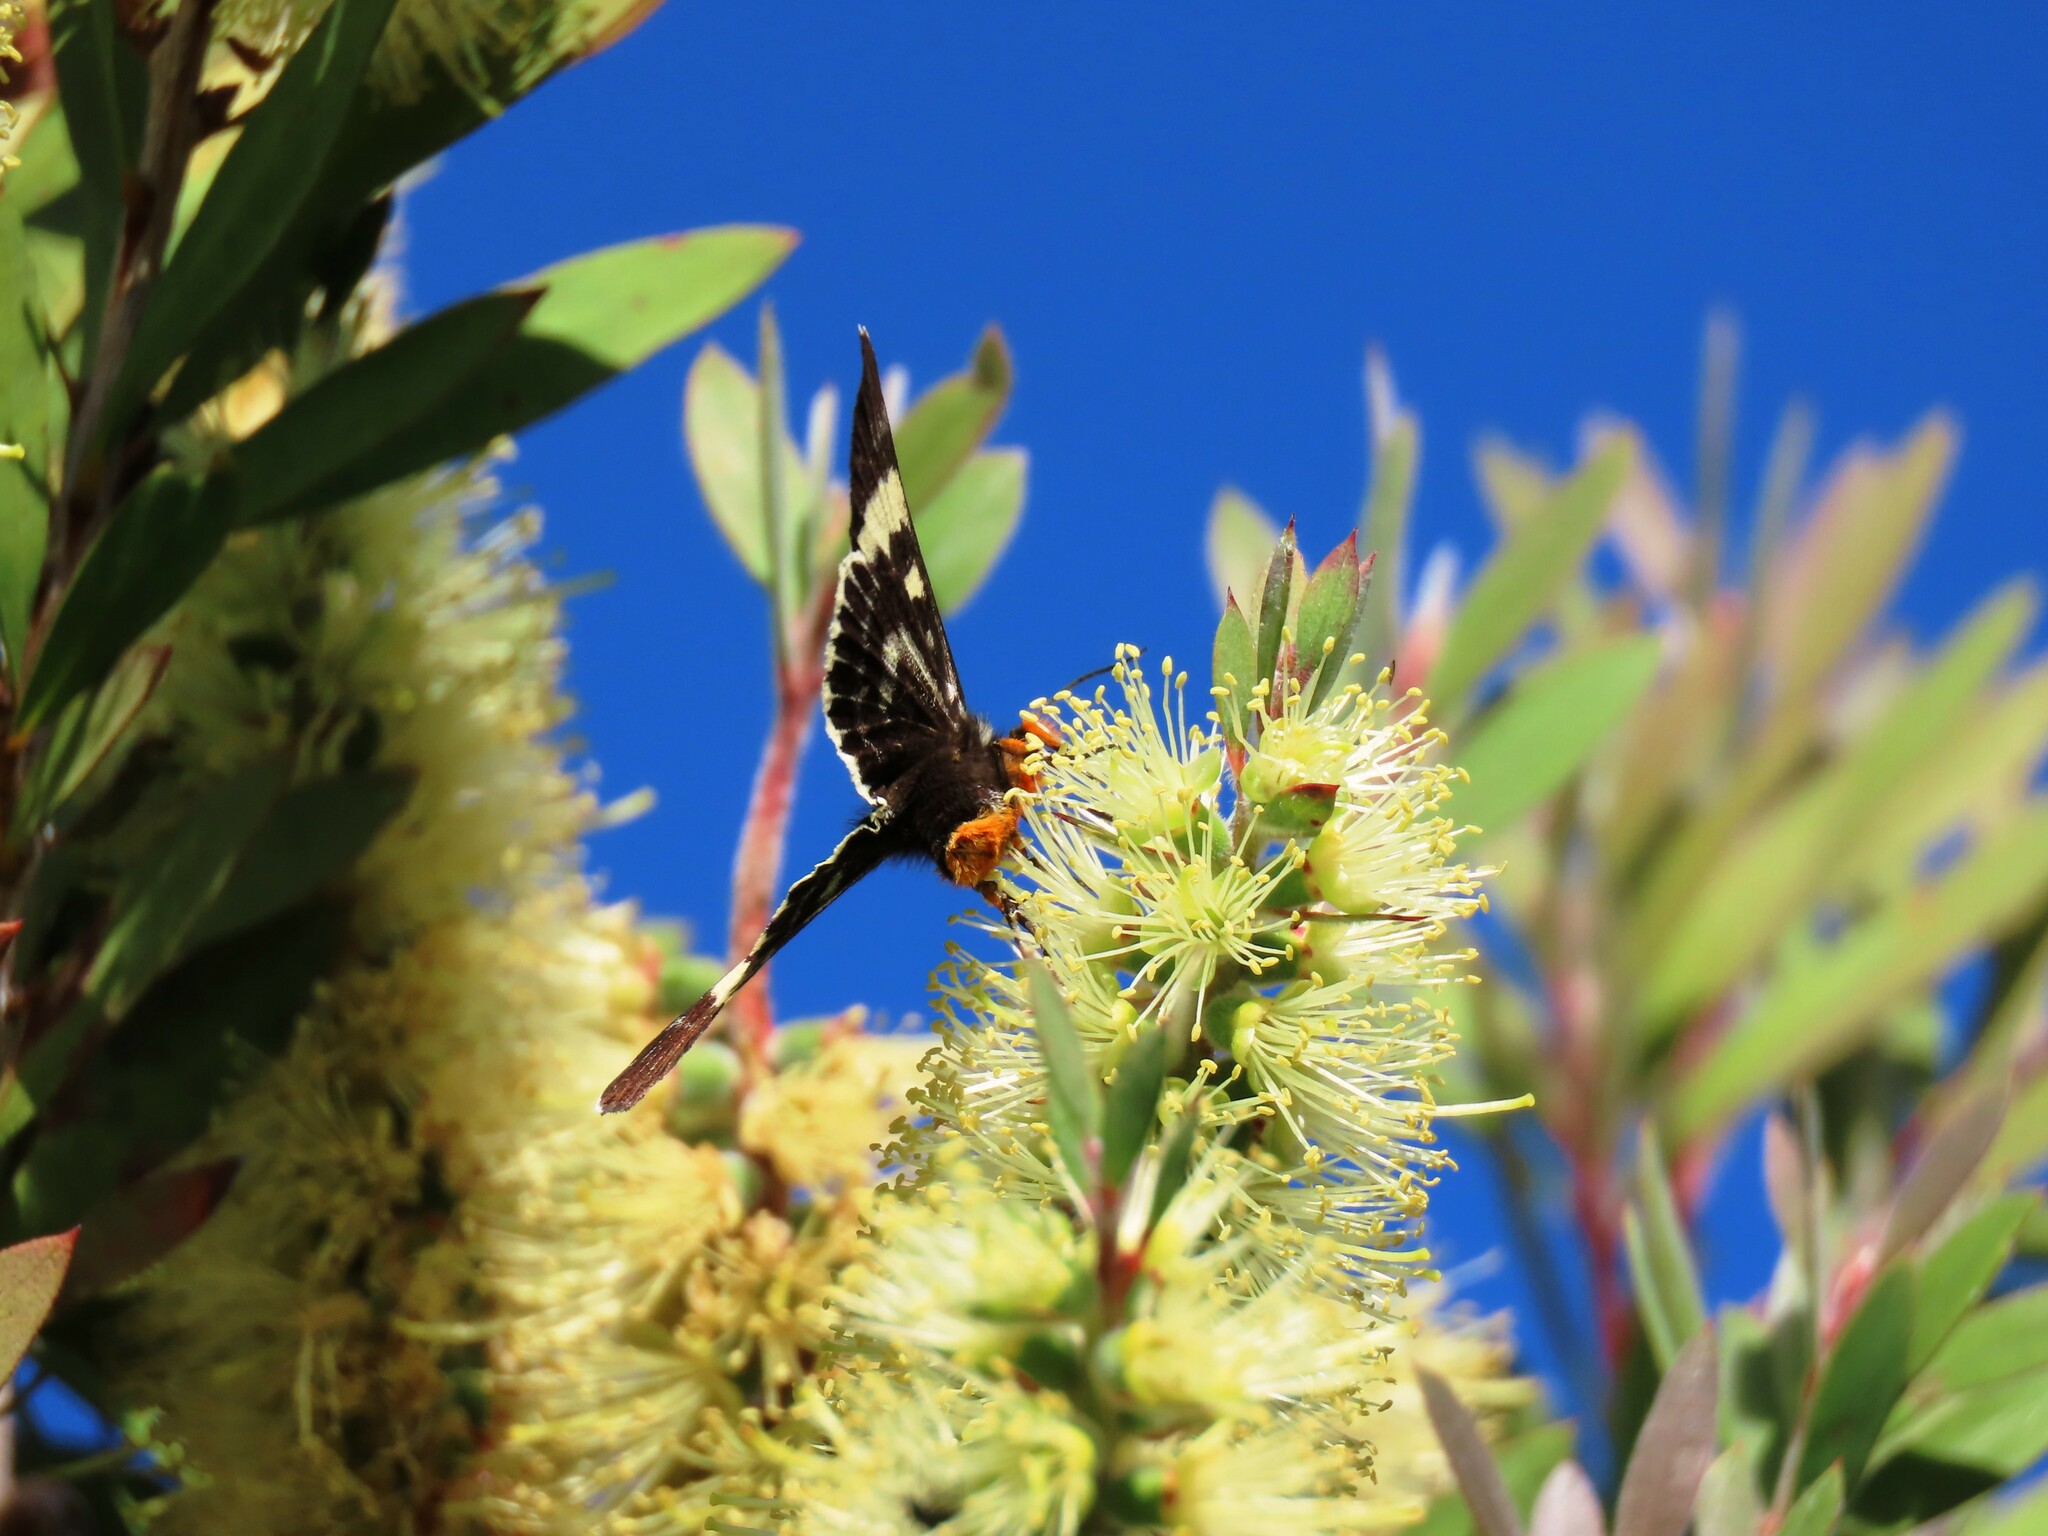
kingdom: Animalia
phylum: Arthropoda
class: Insecta
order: Lepidoptera
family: Noctuidae
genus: Phalaenoides
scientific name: Phalaenoides glycinae
